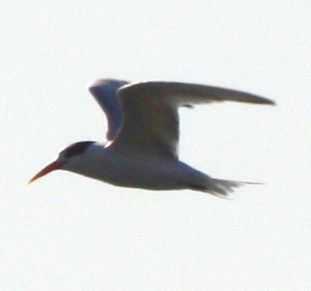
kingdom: Animalia
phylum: Chordata
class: Aves
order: Charadriiformes
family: Laridae
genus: Thalasseus
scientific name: Thalasseus elegans
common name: Elegant tern
